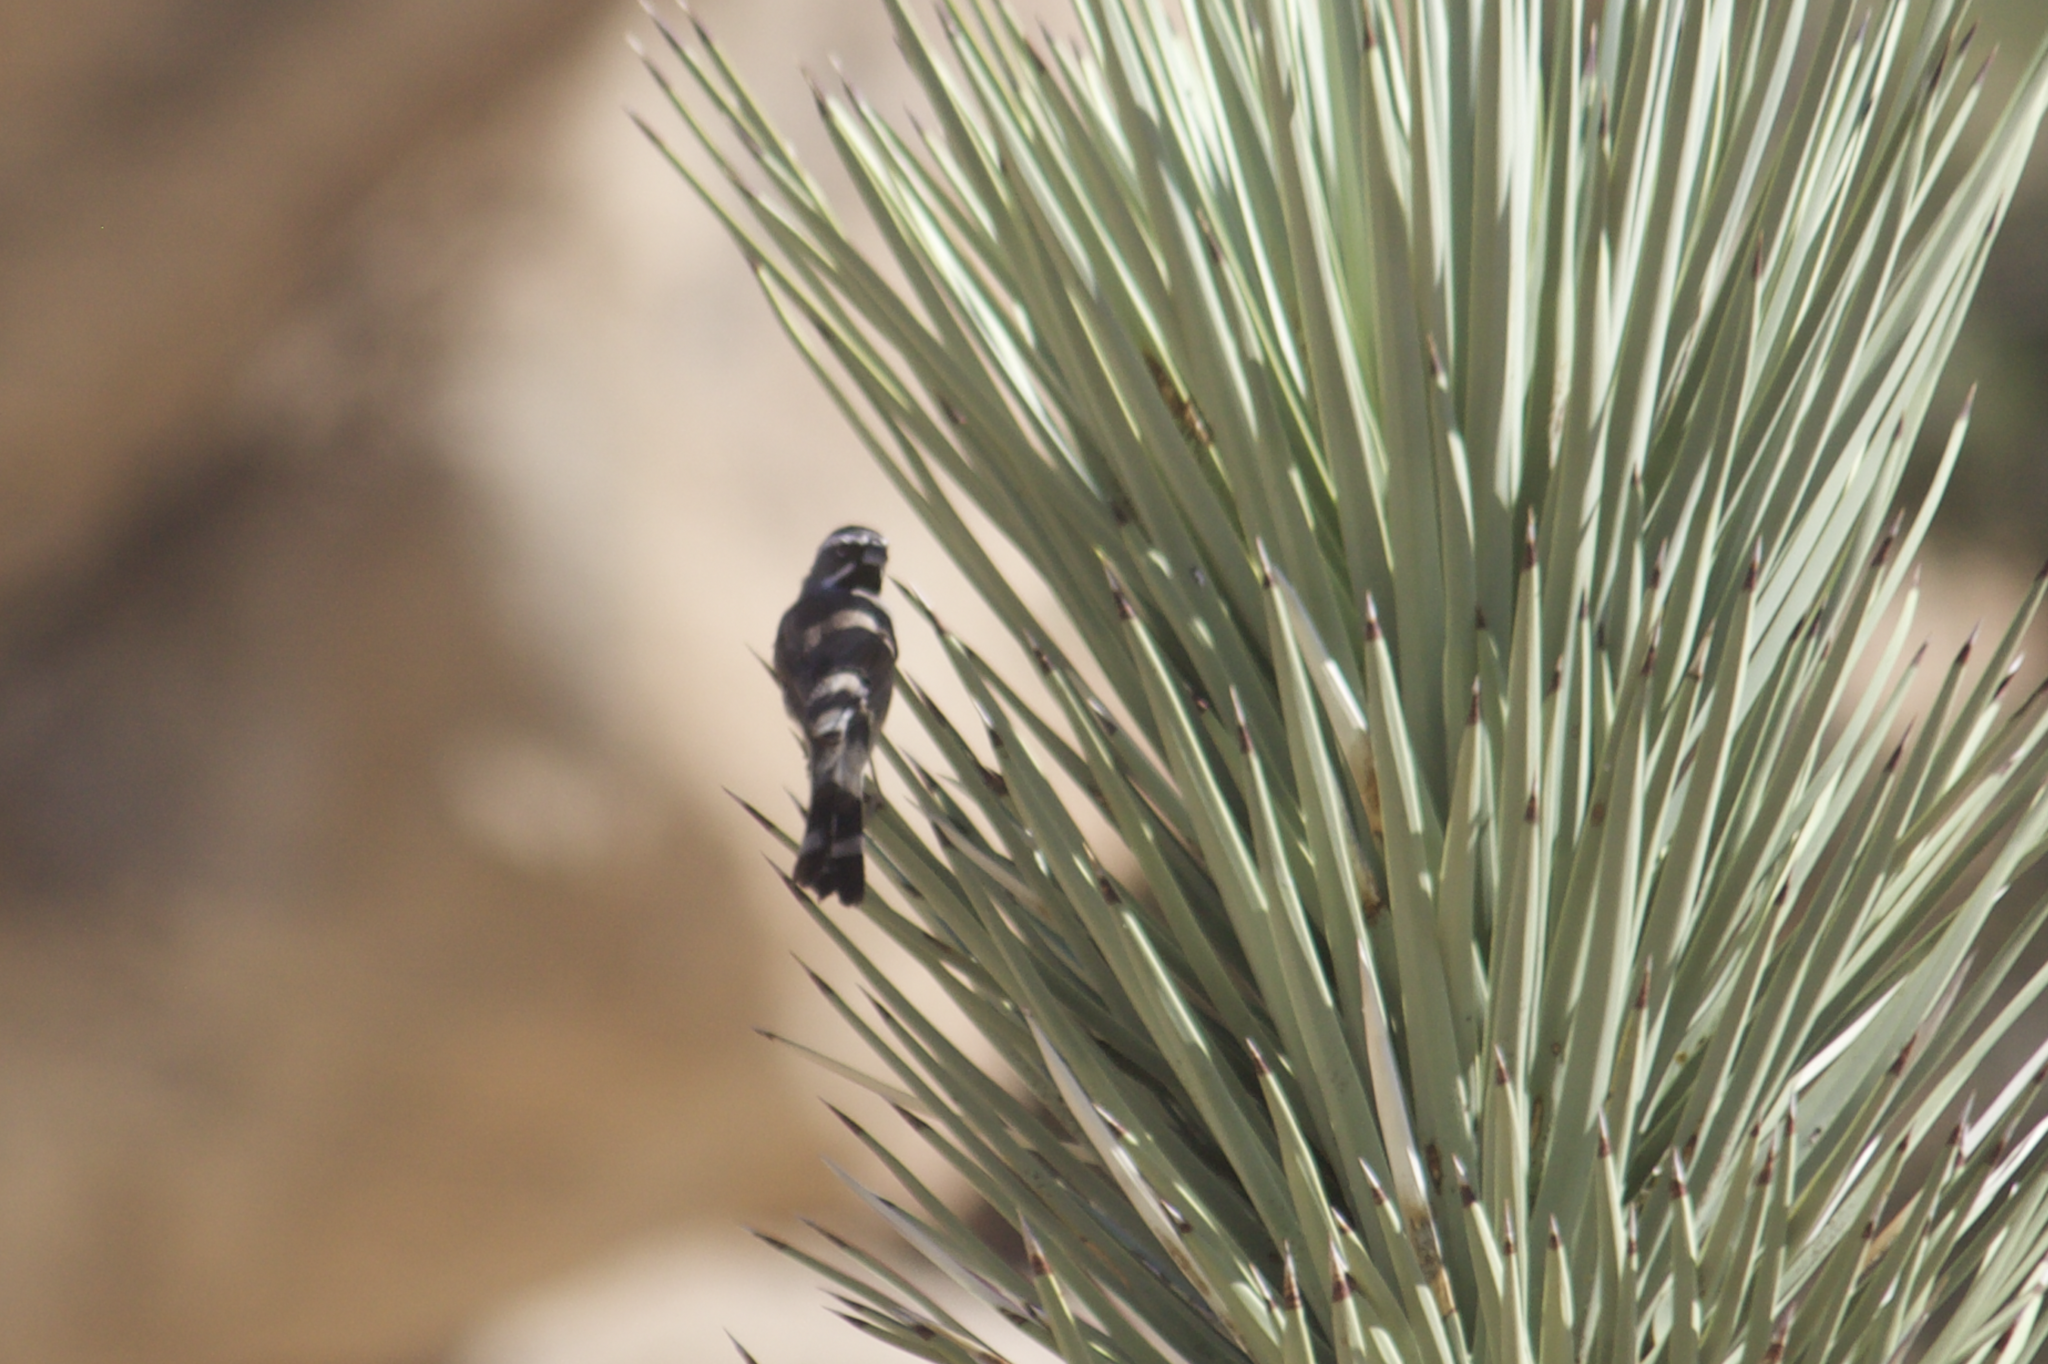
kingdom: Animalia
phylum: Chordata
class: Aves
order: Passeriformes
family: Passerellidae
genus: Amphispiza
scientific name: Amphispiza bilineata
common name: Black-throated sparrow
